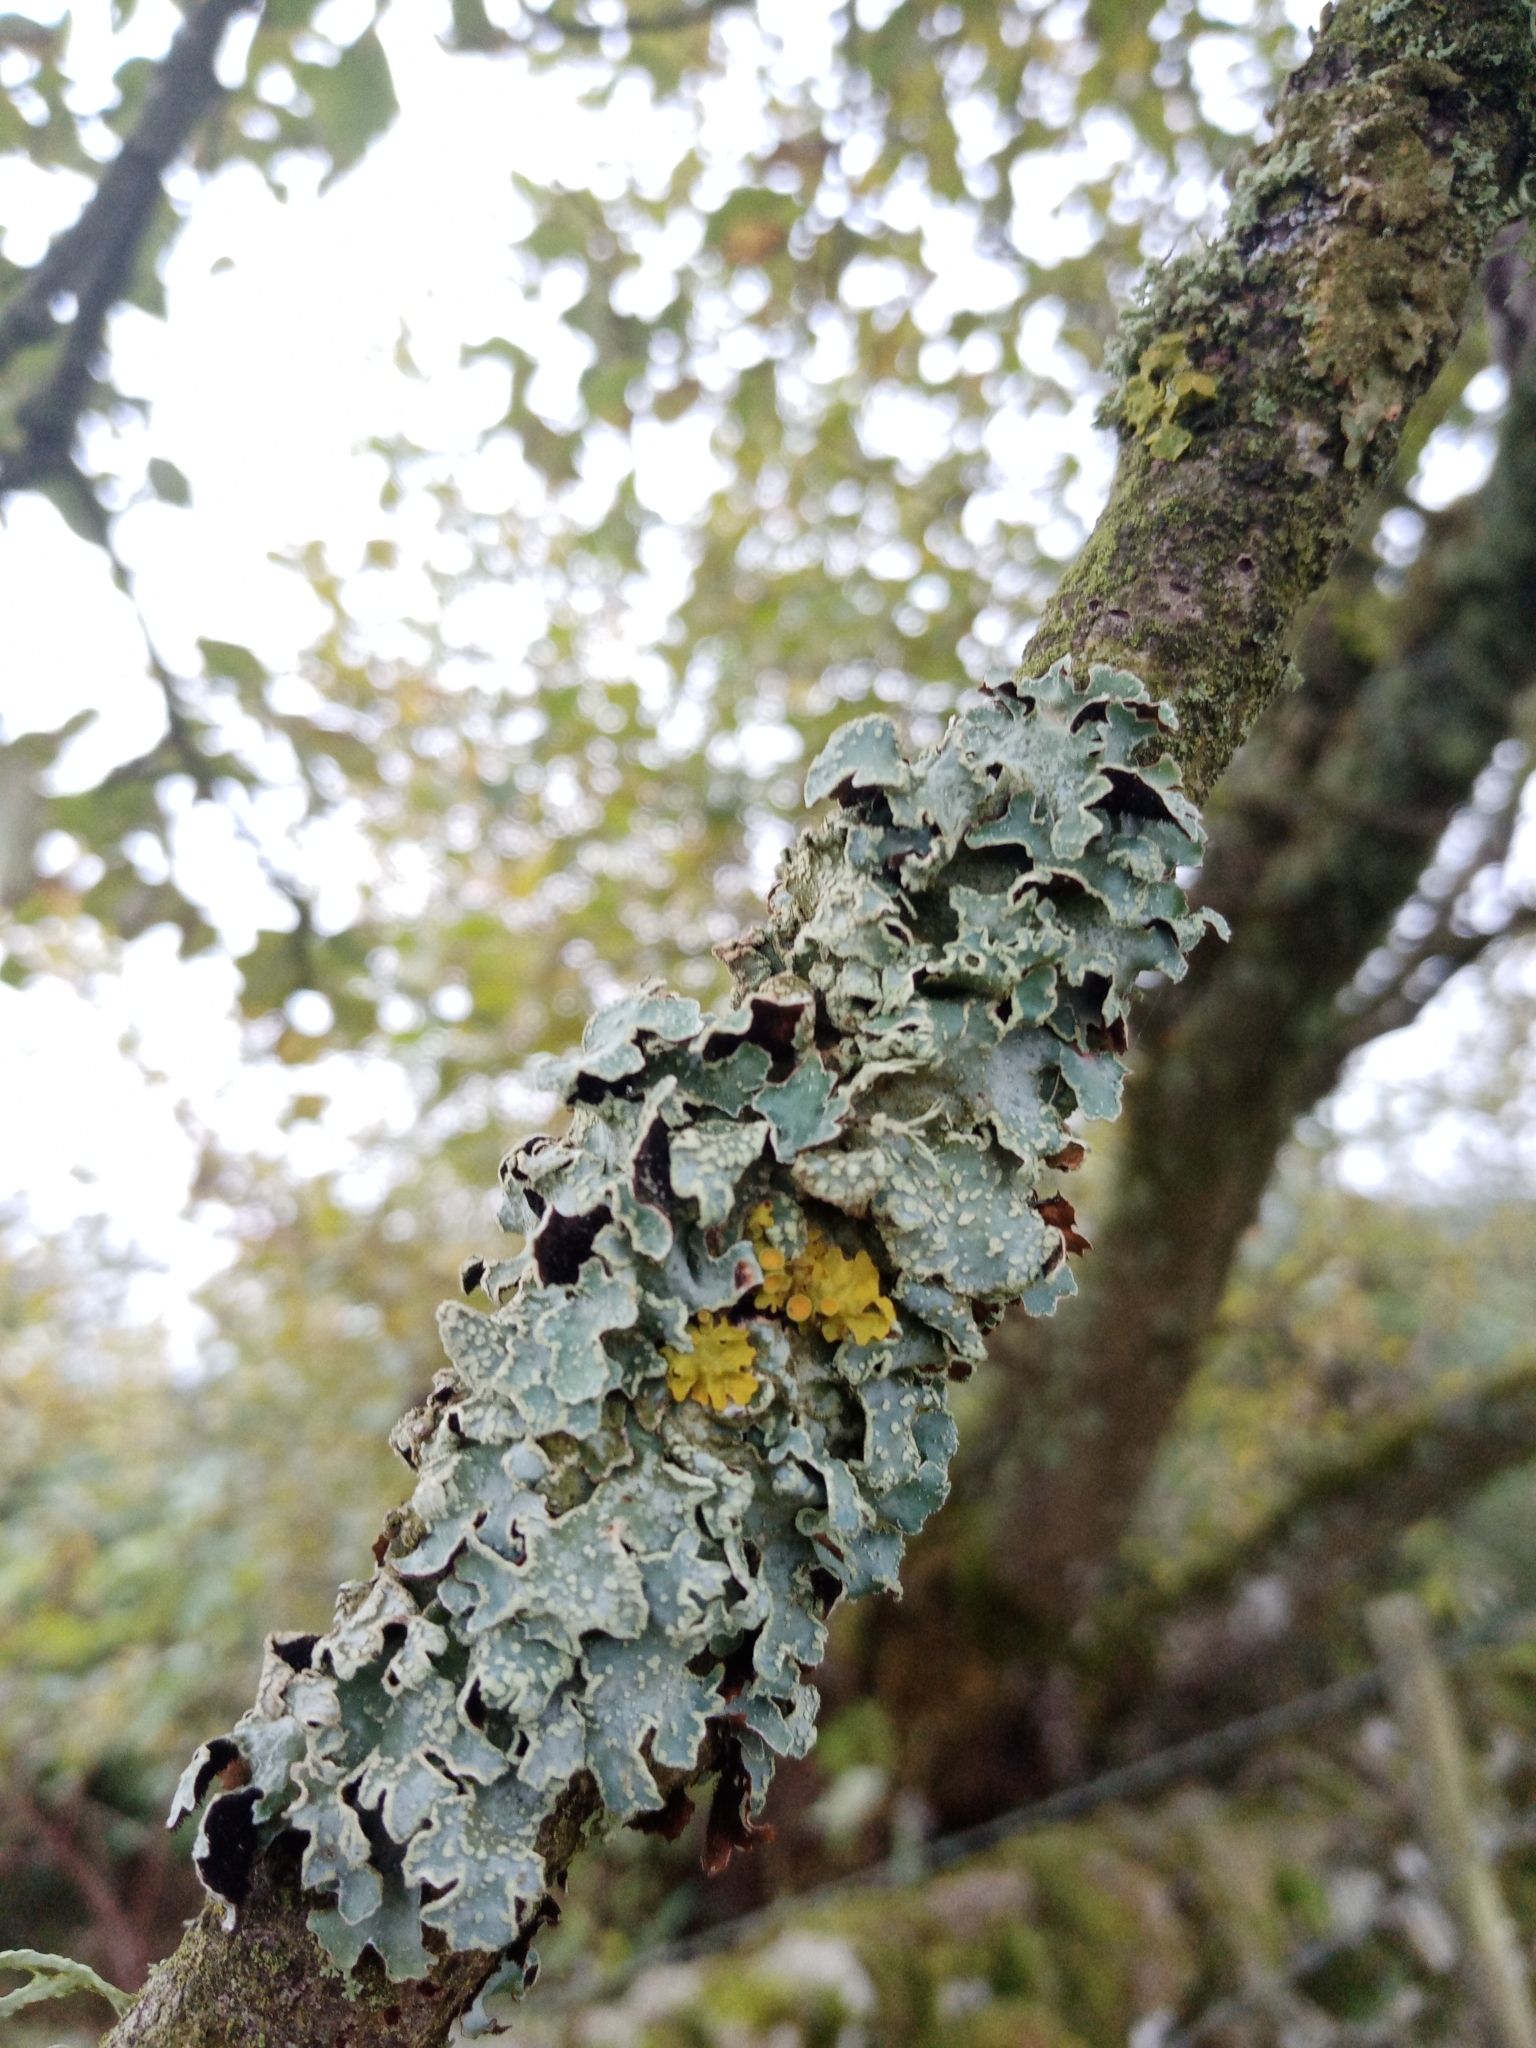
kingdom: Fungi
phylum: Ascomycota
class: Lecanoromycetes
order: Lecanorales
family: Parmeliaceae
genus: Parmelia
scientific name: Parmelia sulcata
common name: Netted shield lichen
